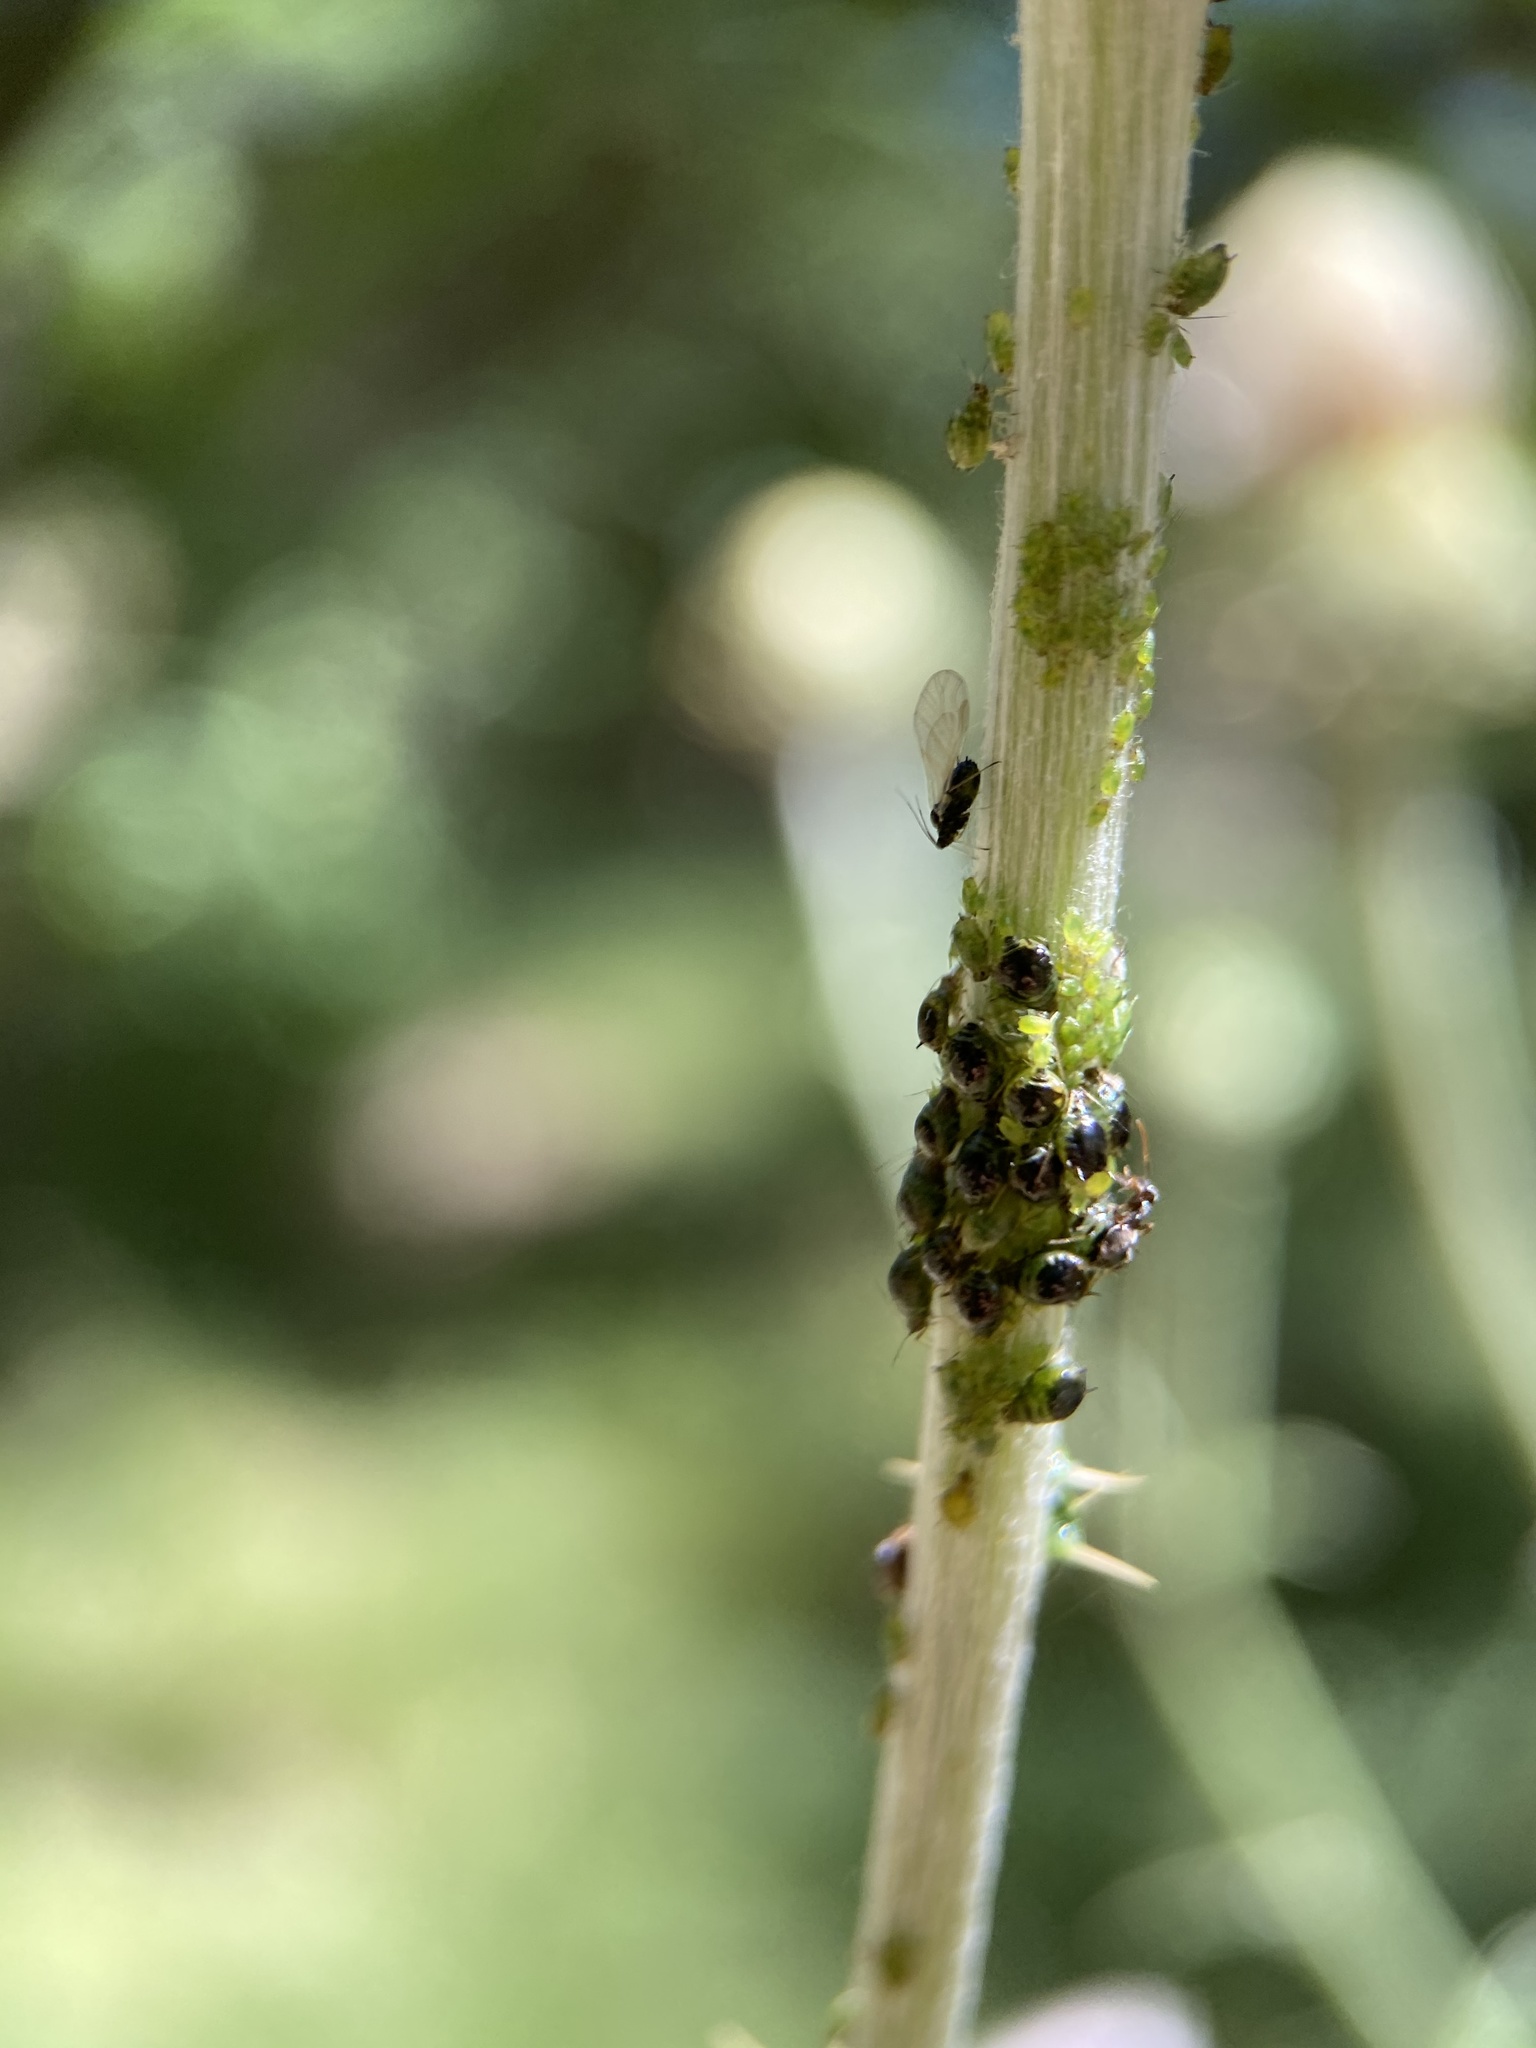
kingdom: Animalia
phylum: Arthropoda
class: Insecta
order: Hemiptera
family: Aphididae
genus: Brachycaudus
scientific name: Brachycaudus cardui
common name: Thistle aphid
